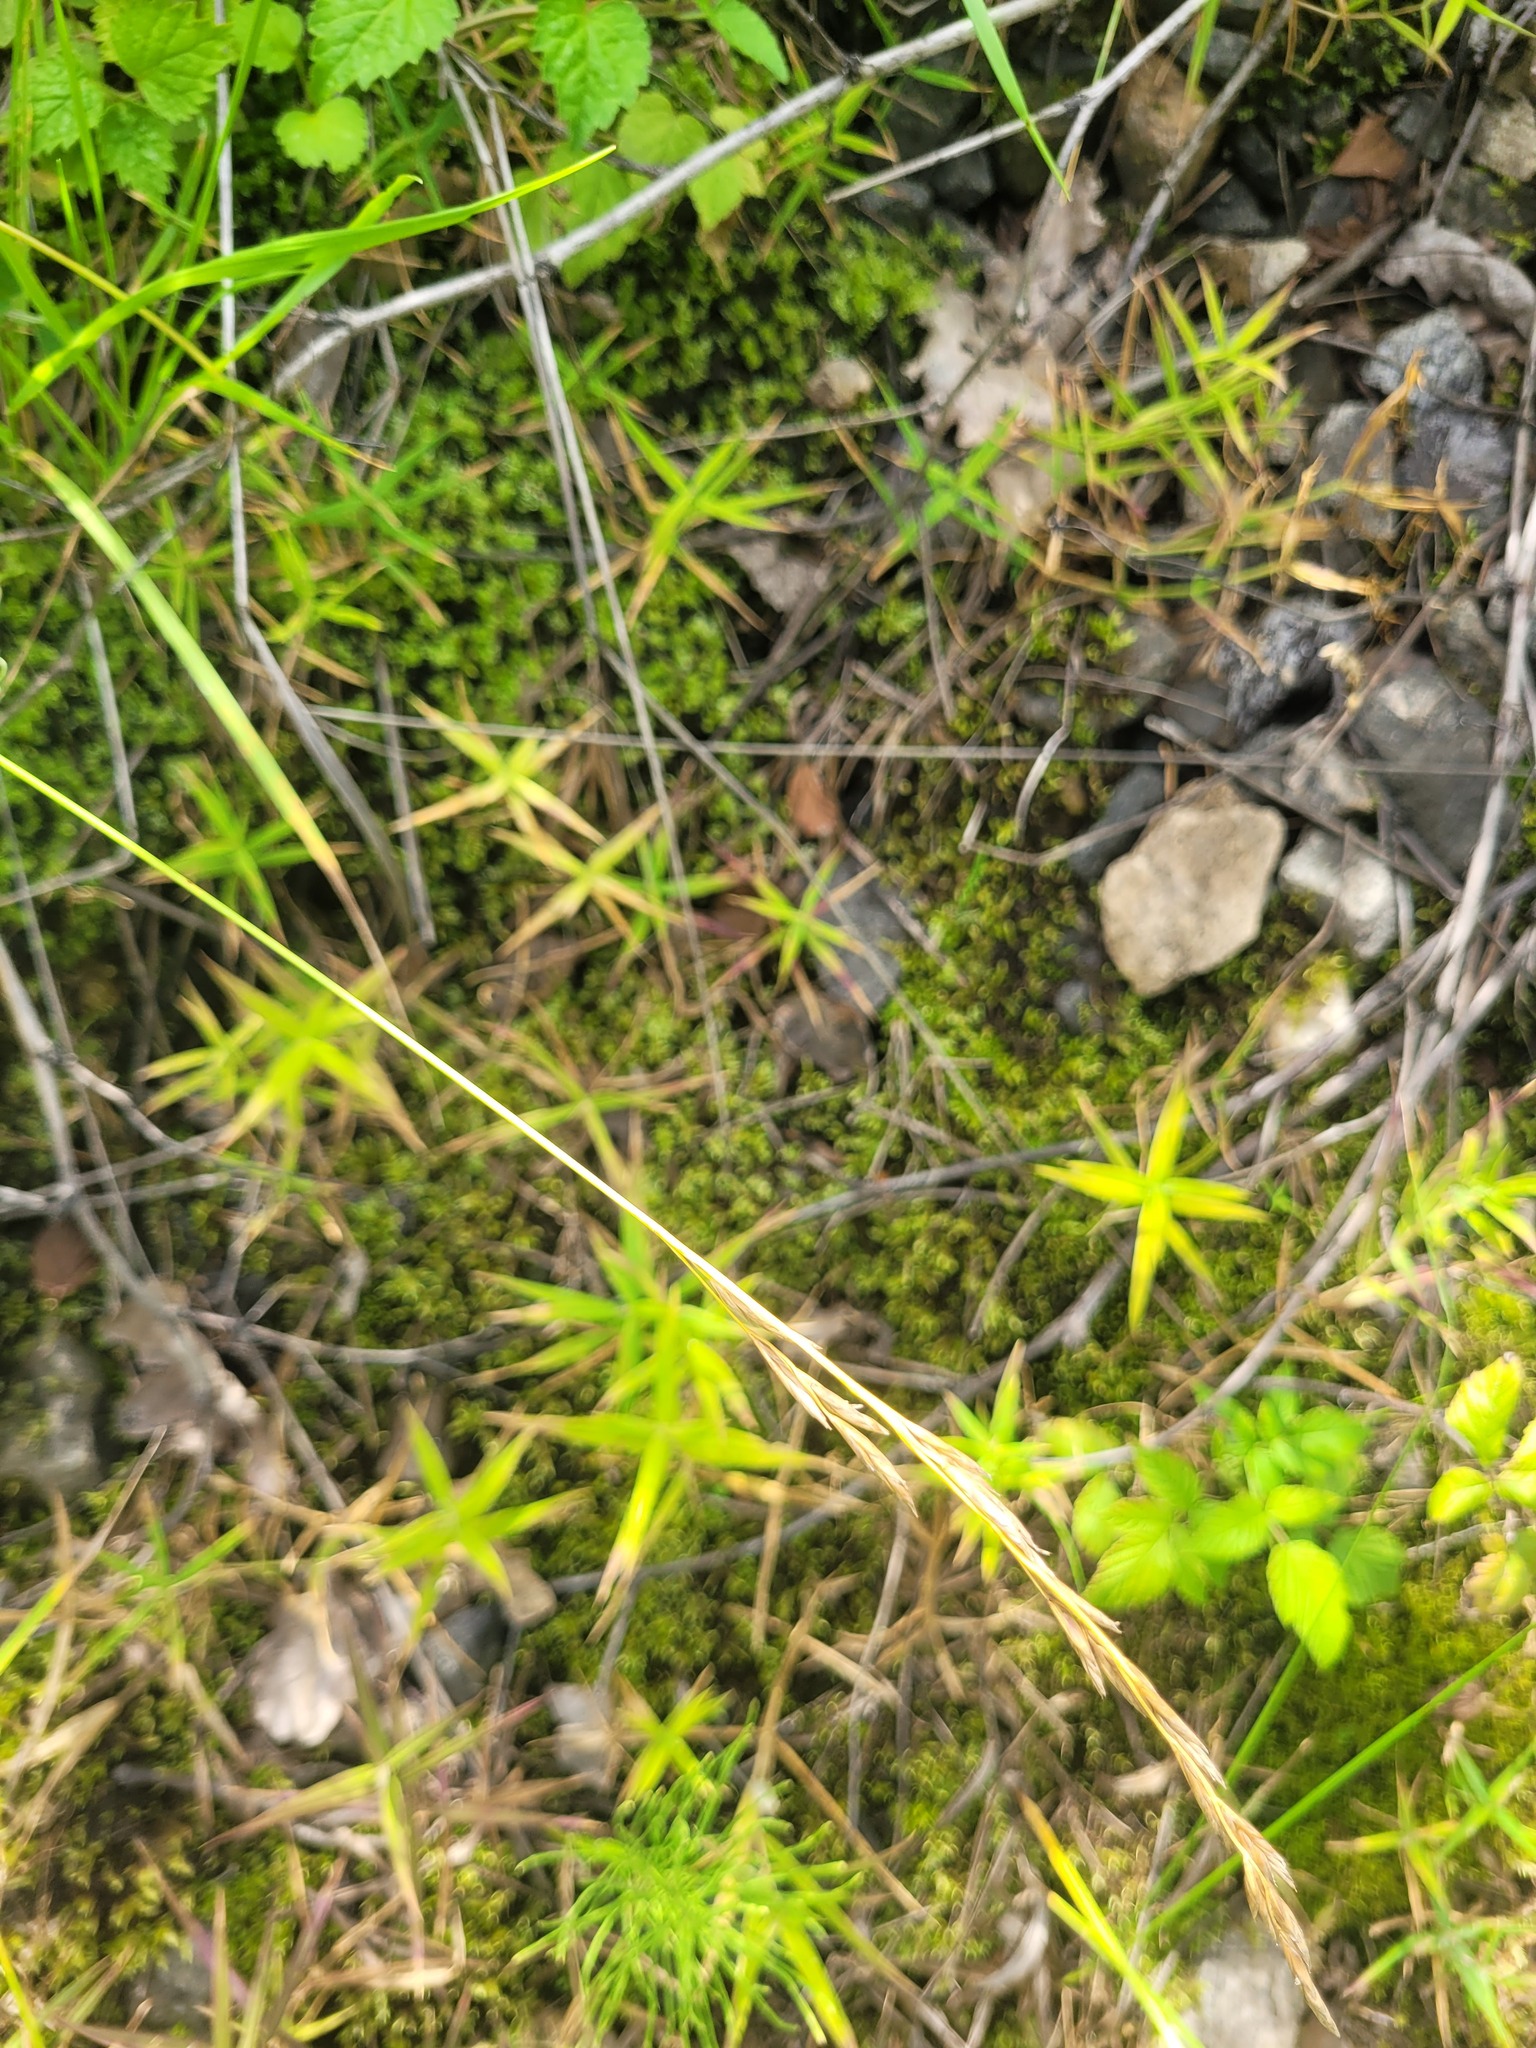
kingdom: Plantae
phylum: Tracheophyta
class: Magnoliopsida
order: Caryophyllales
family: Caryophyllaceae
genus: Rabelera
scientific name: Rabelera holostea
